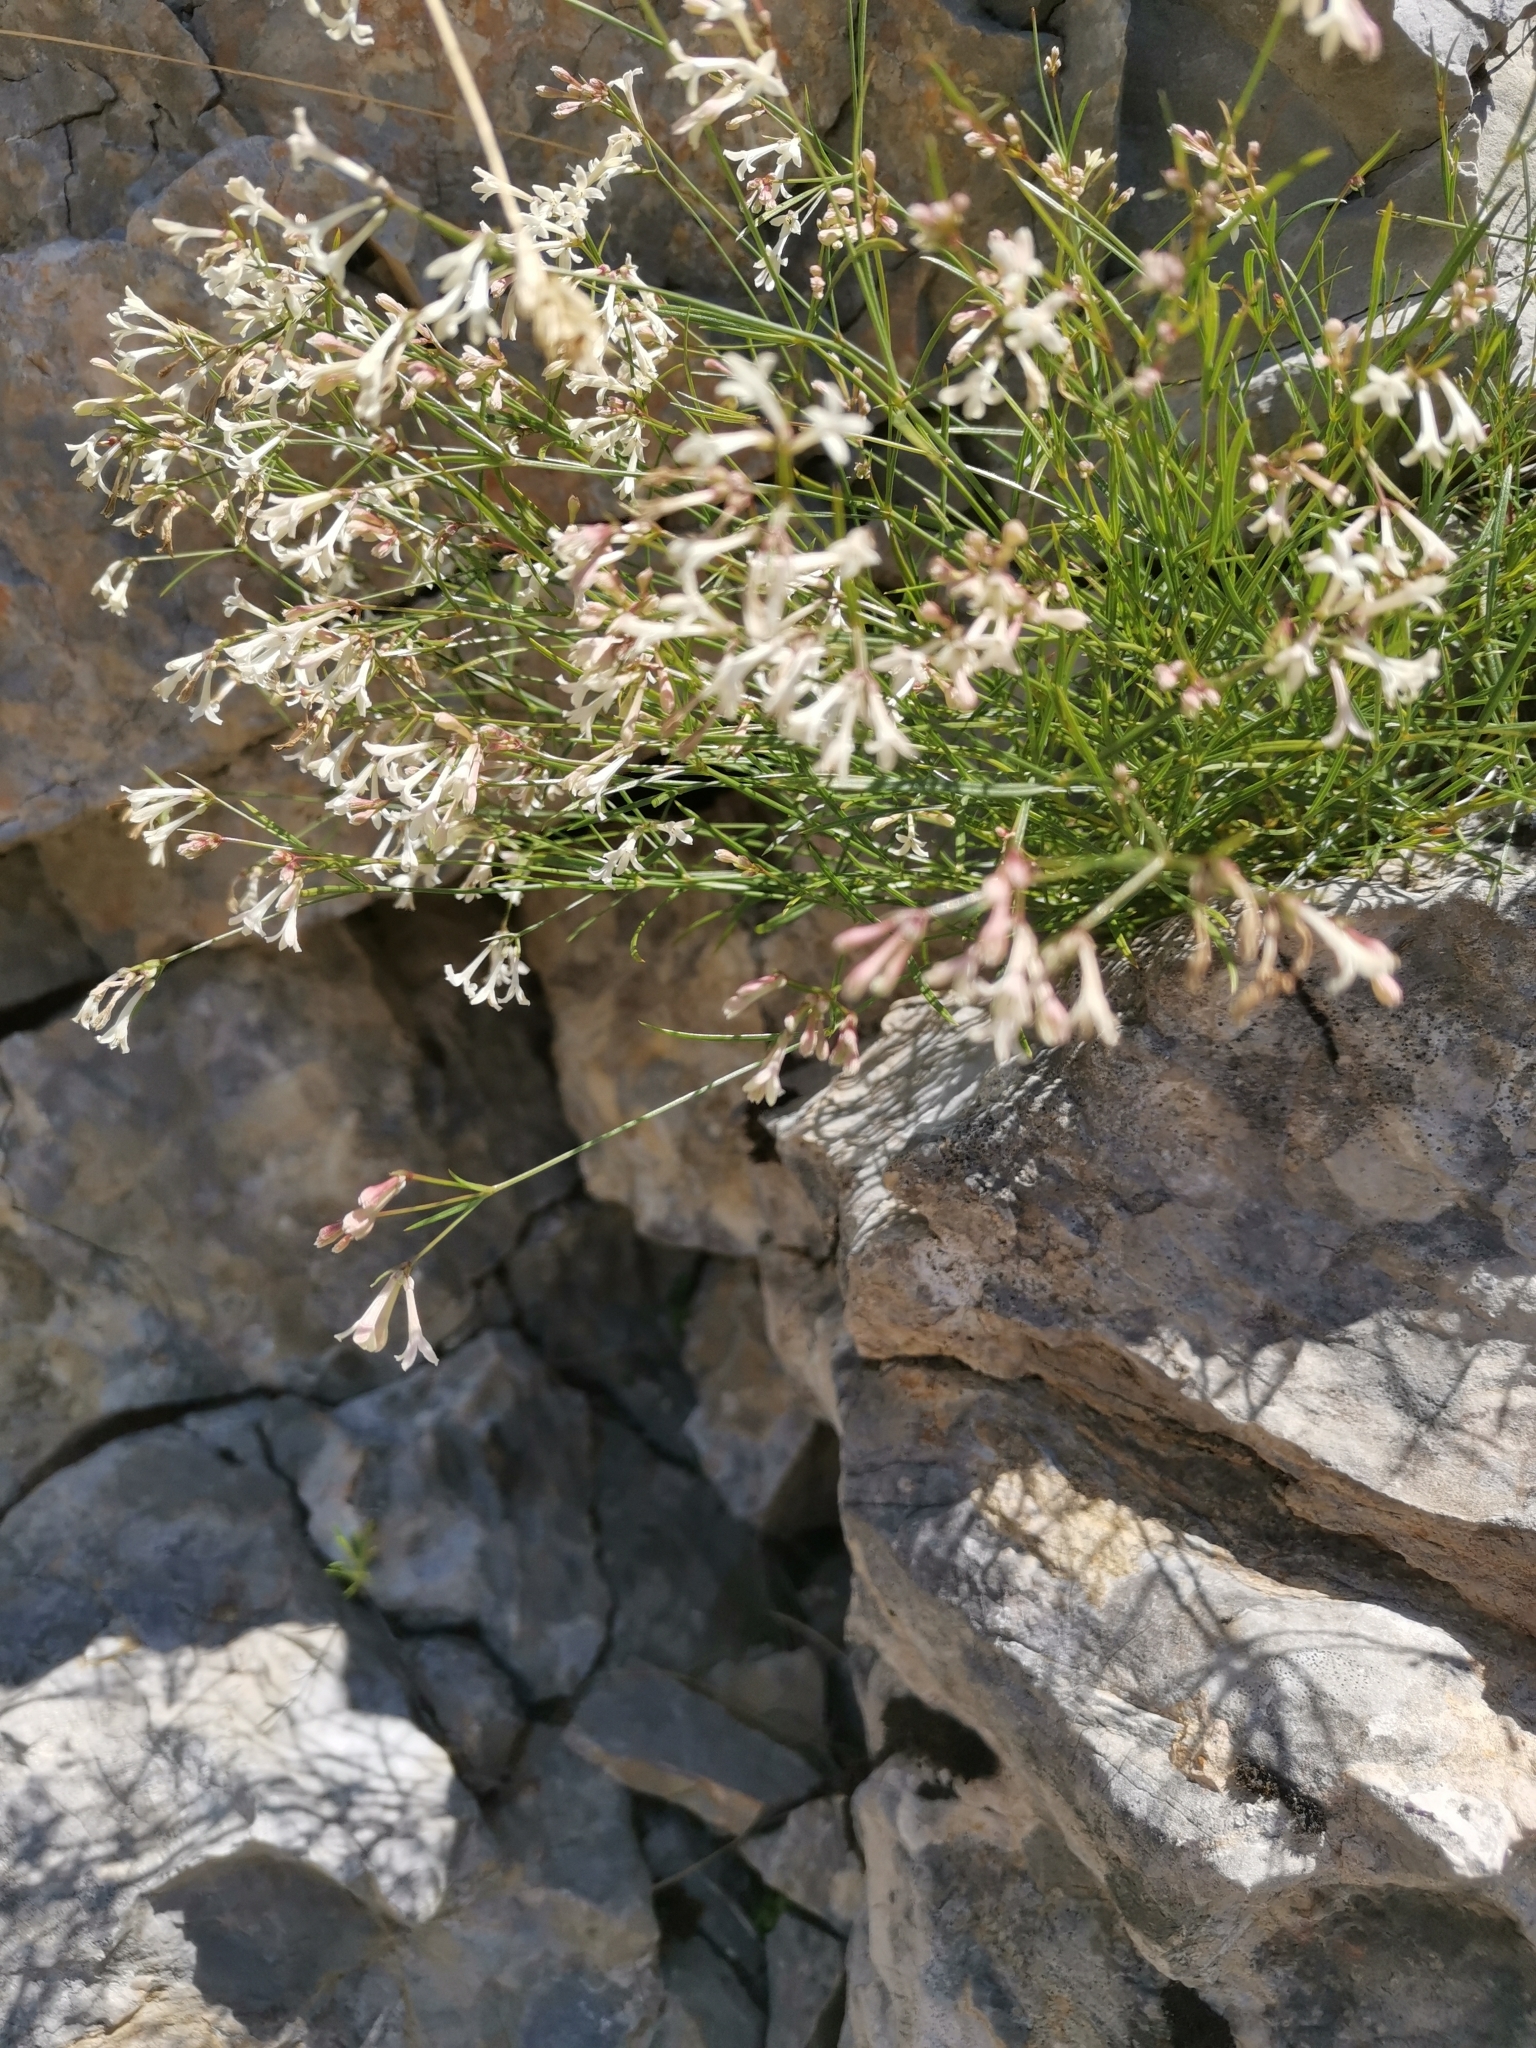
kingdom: Plantae
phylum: Tracheophyta
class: Magnoliopsida
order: Gentianales
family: Rubiaceae
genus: Cynanchica
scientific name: Cynanchica aristata
